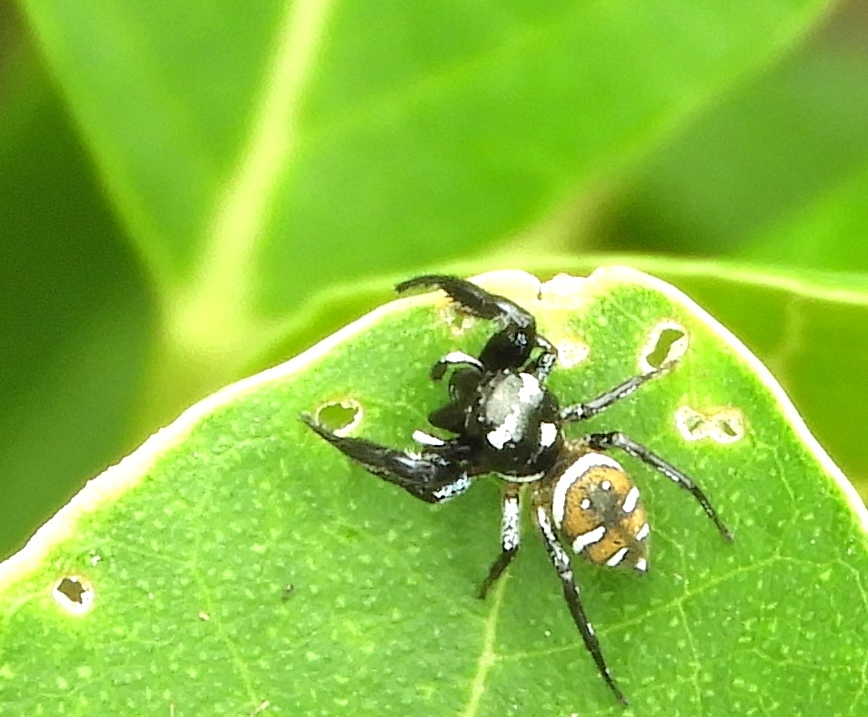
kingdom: Animalia
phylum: Arthropoda
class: Arachnida
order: Araneae
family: Salticidae
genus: Sassacus
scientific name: Sassacus
